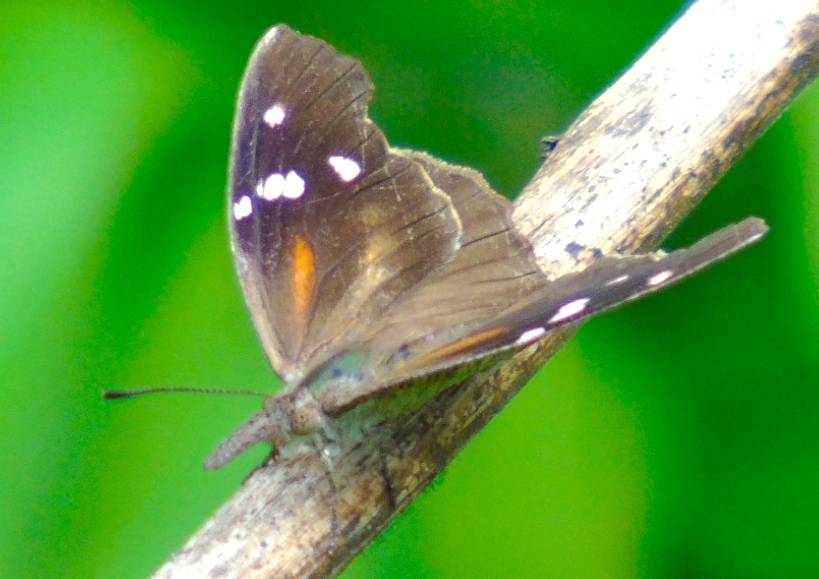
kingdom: Animalia
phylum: Arthropoda
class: Insecta
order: Lepidoptera
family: Nymphalidae
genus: Libytheana
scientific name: Libytheana carinenta
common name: American snout
